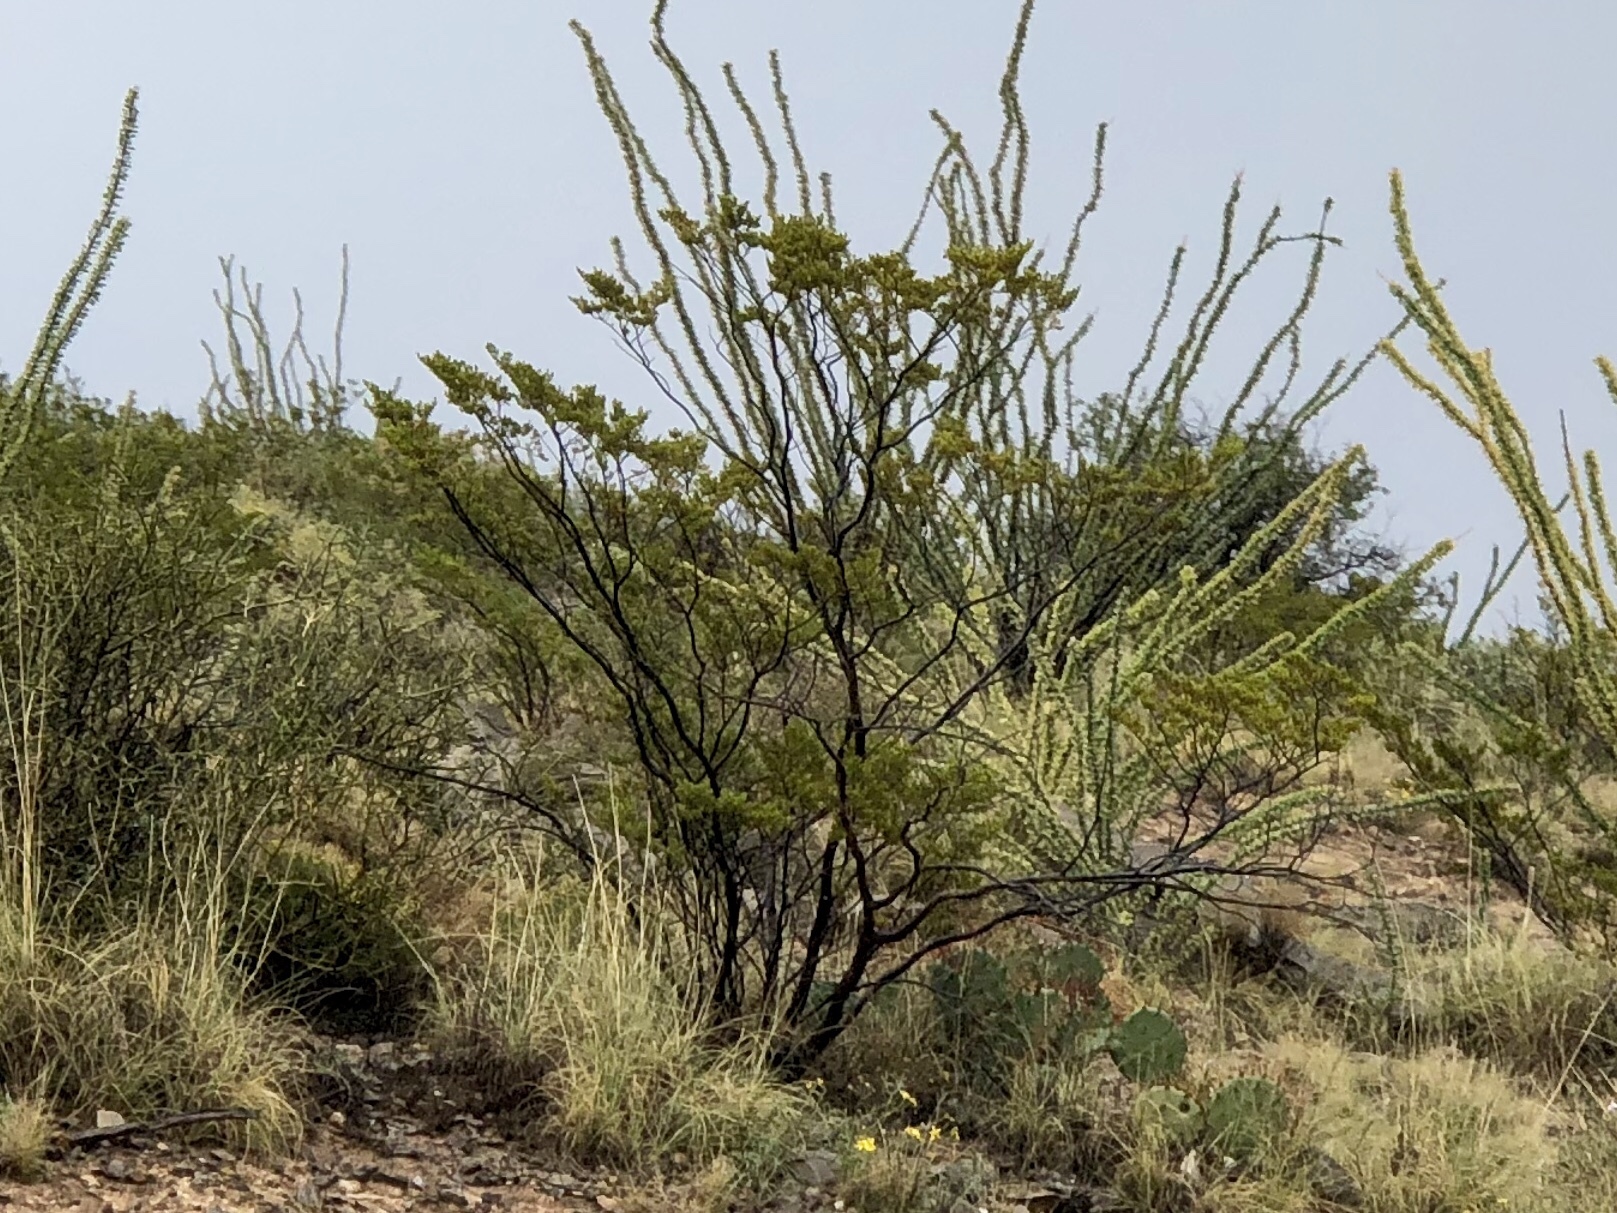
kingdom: Plantae
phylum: Tracheophyta
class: Magnoliopsida
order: Zygophyllales
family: Zygophyllaceae
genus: Larrea
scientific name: Larrea tridentata
